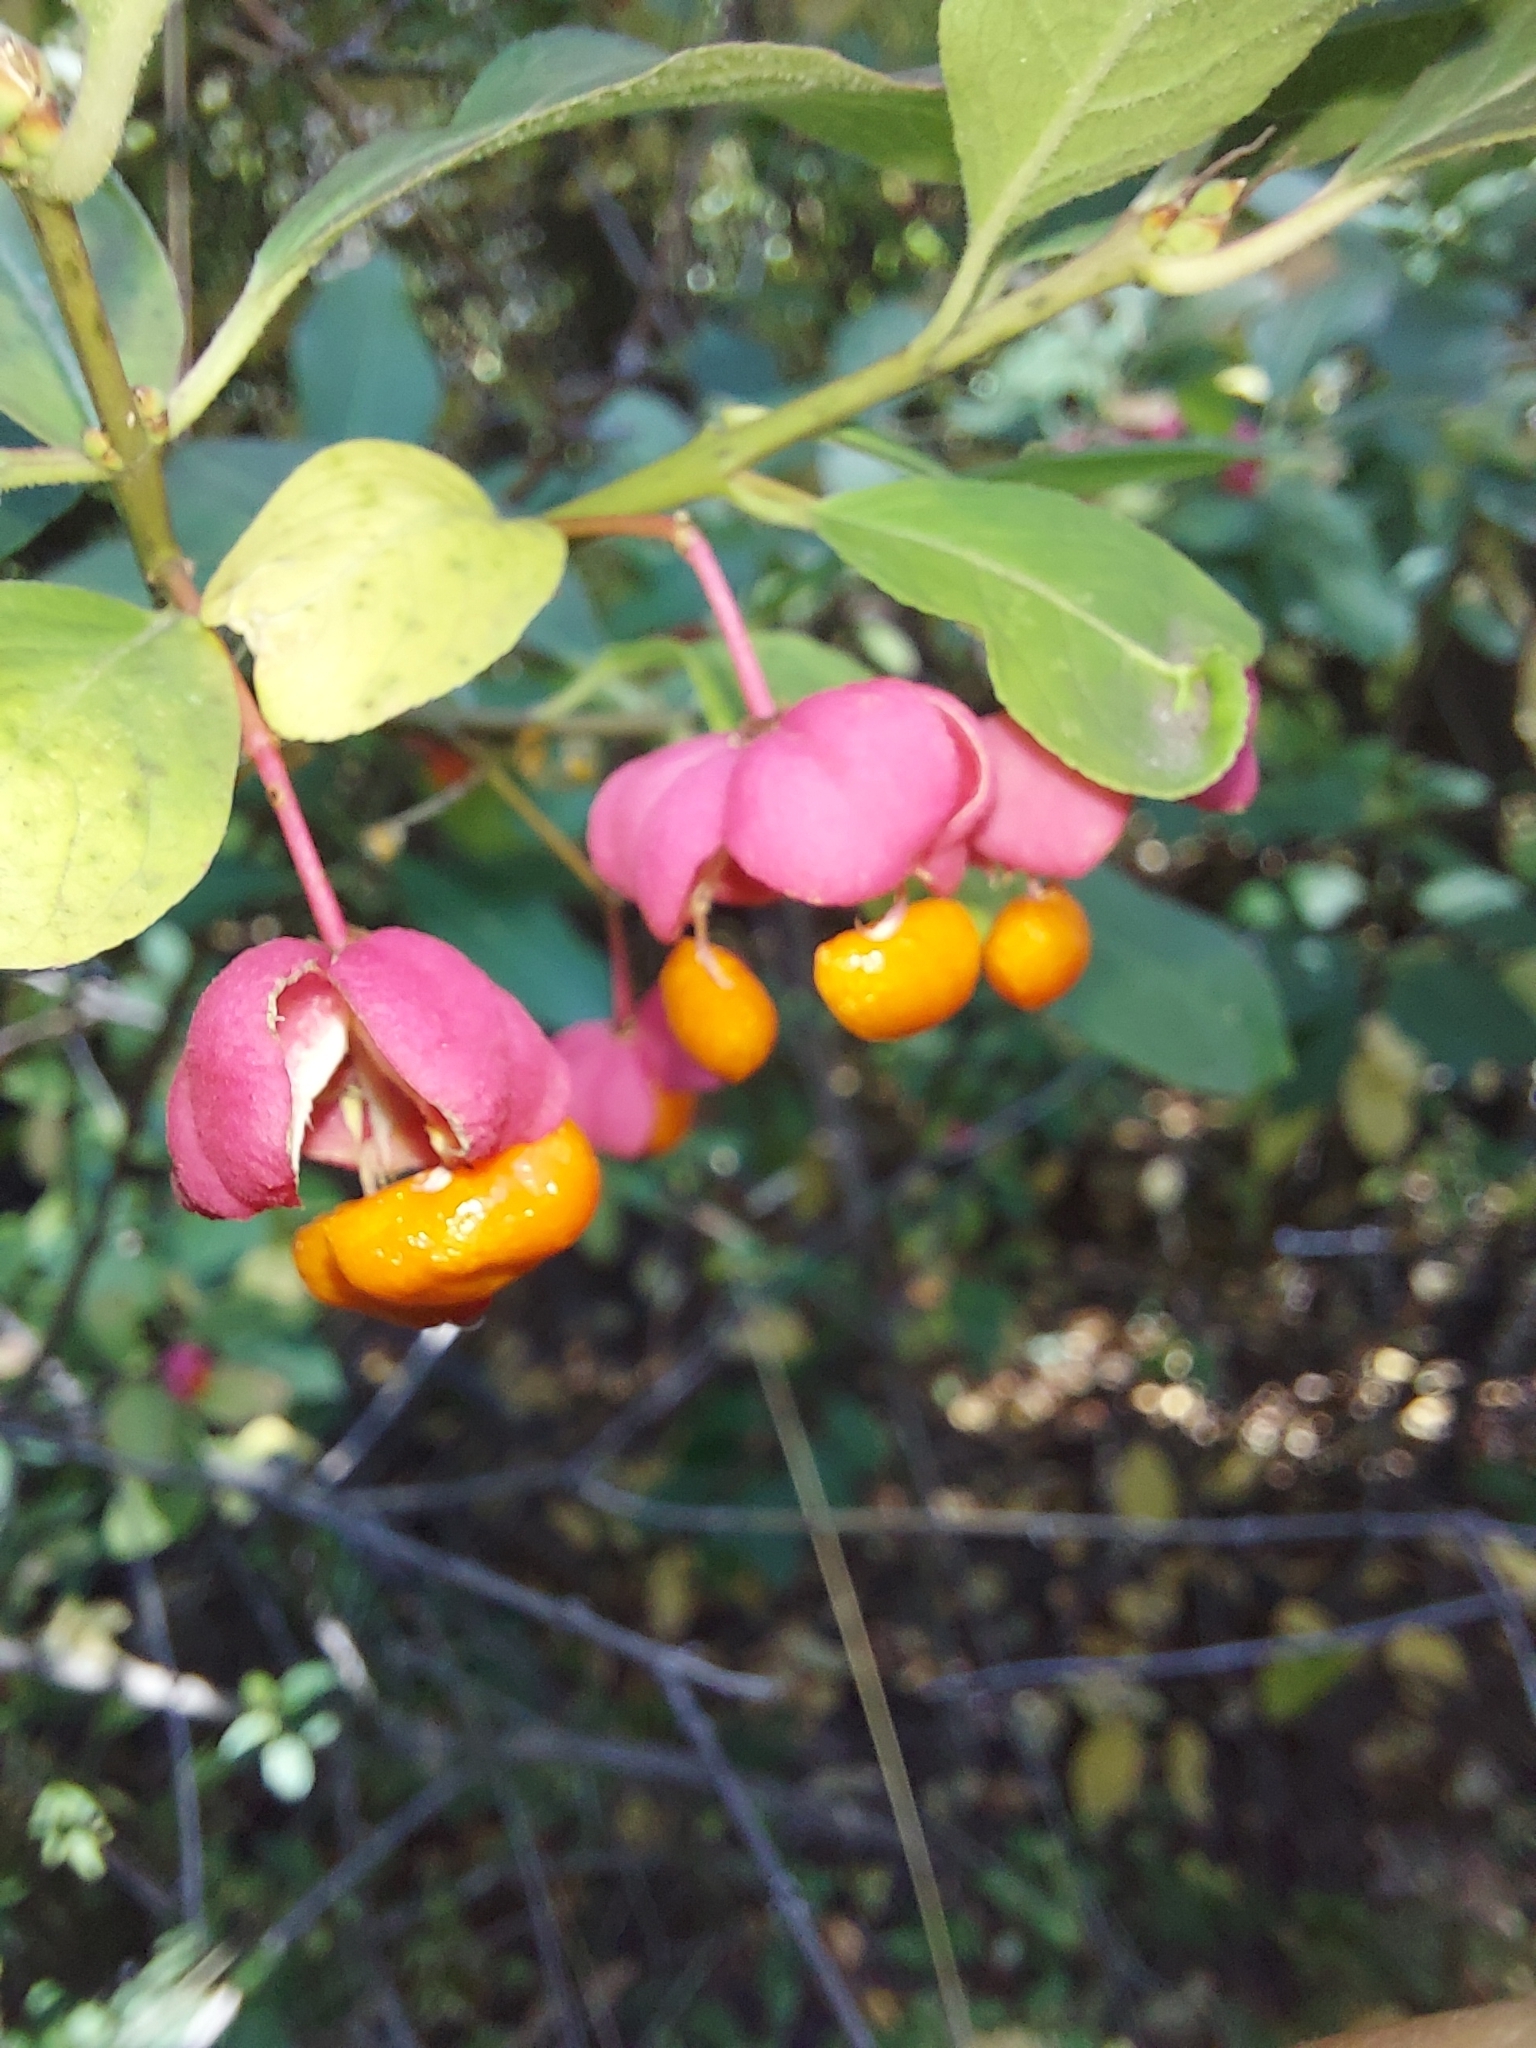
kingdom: Plantae
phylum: Tracheophyta
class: Magnoliopsida
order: Celastrales
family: Celastraceae
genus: Euonymus
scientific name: Euonymus europaeus
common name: Spindle
